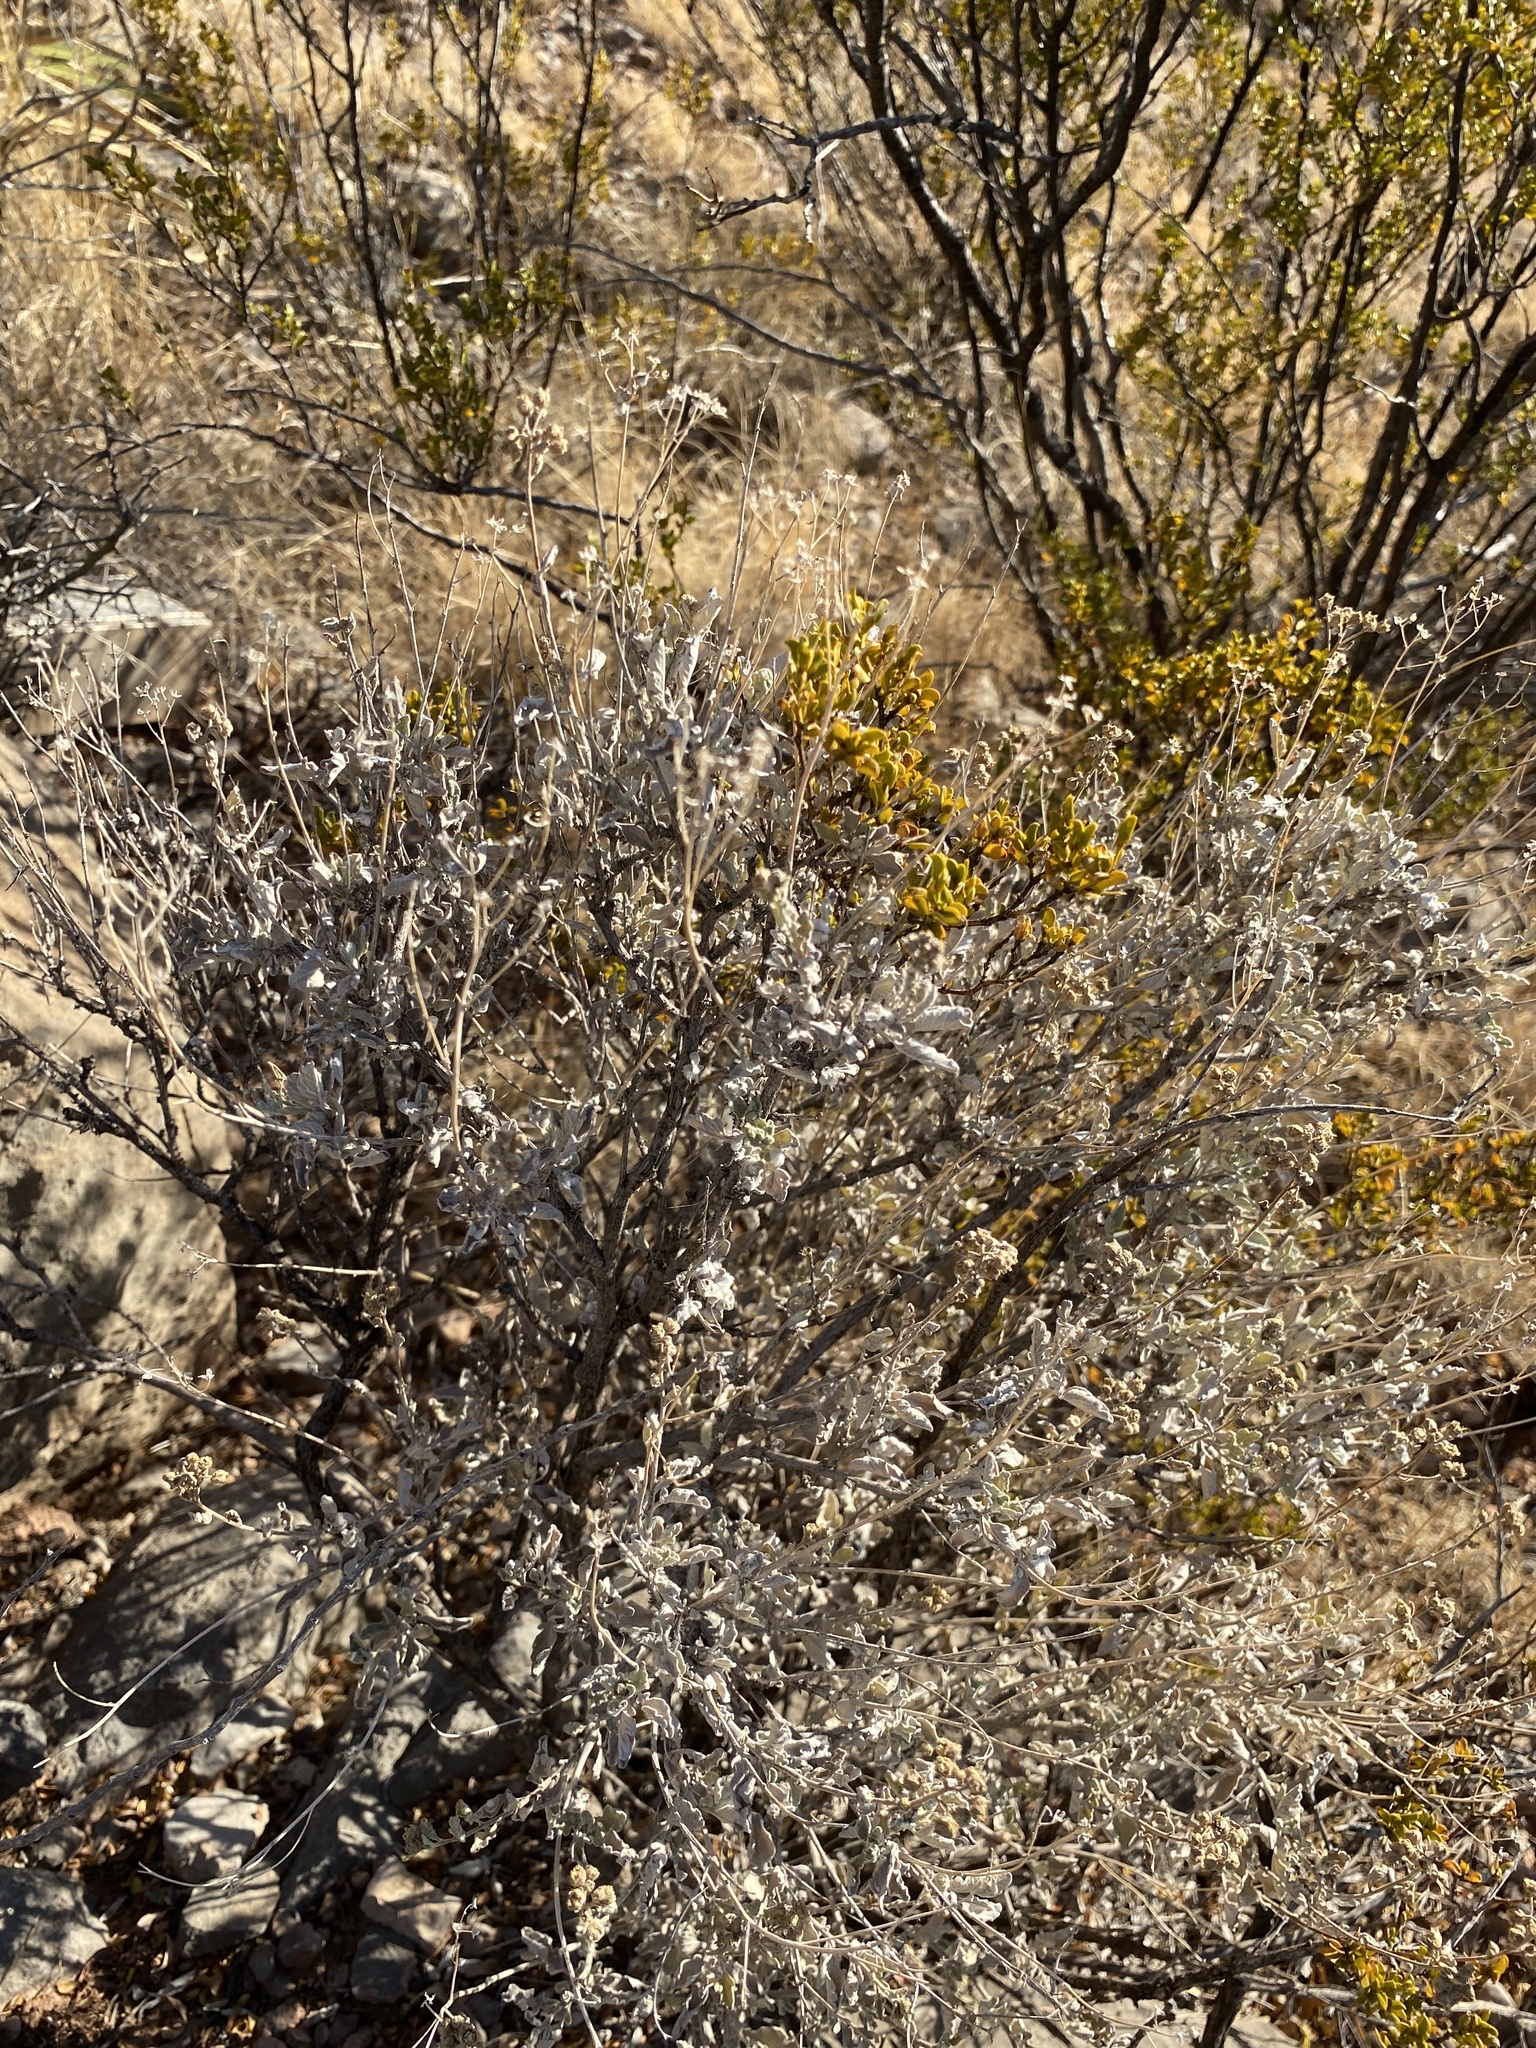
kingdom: Plantae
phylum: Tracheophyta
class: Magnoliopsida
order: Asterales
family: Asteraceae
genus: Parthenium
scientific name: Parthenium incanum
